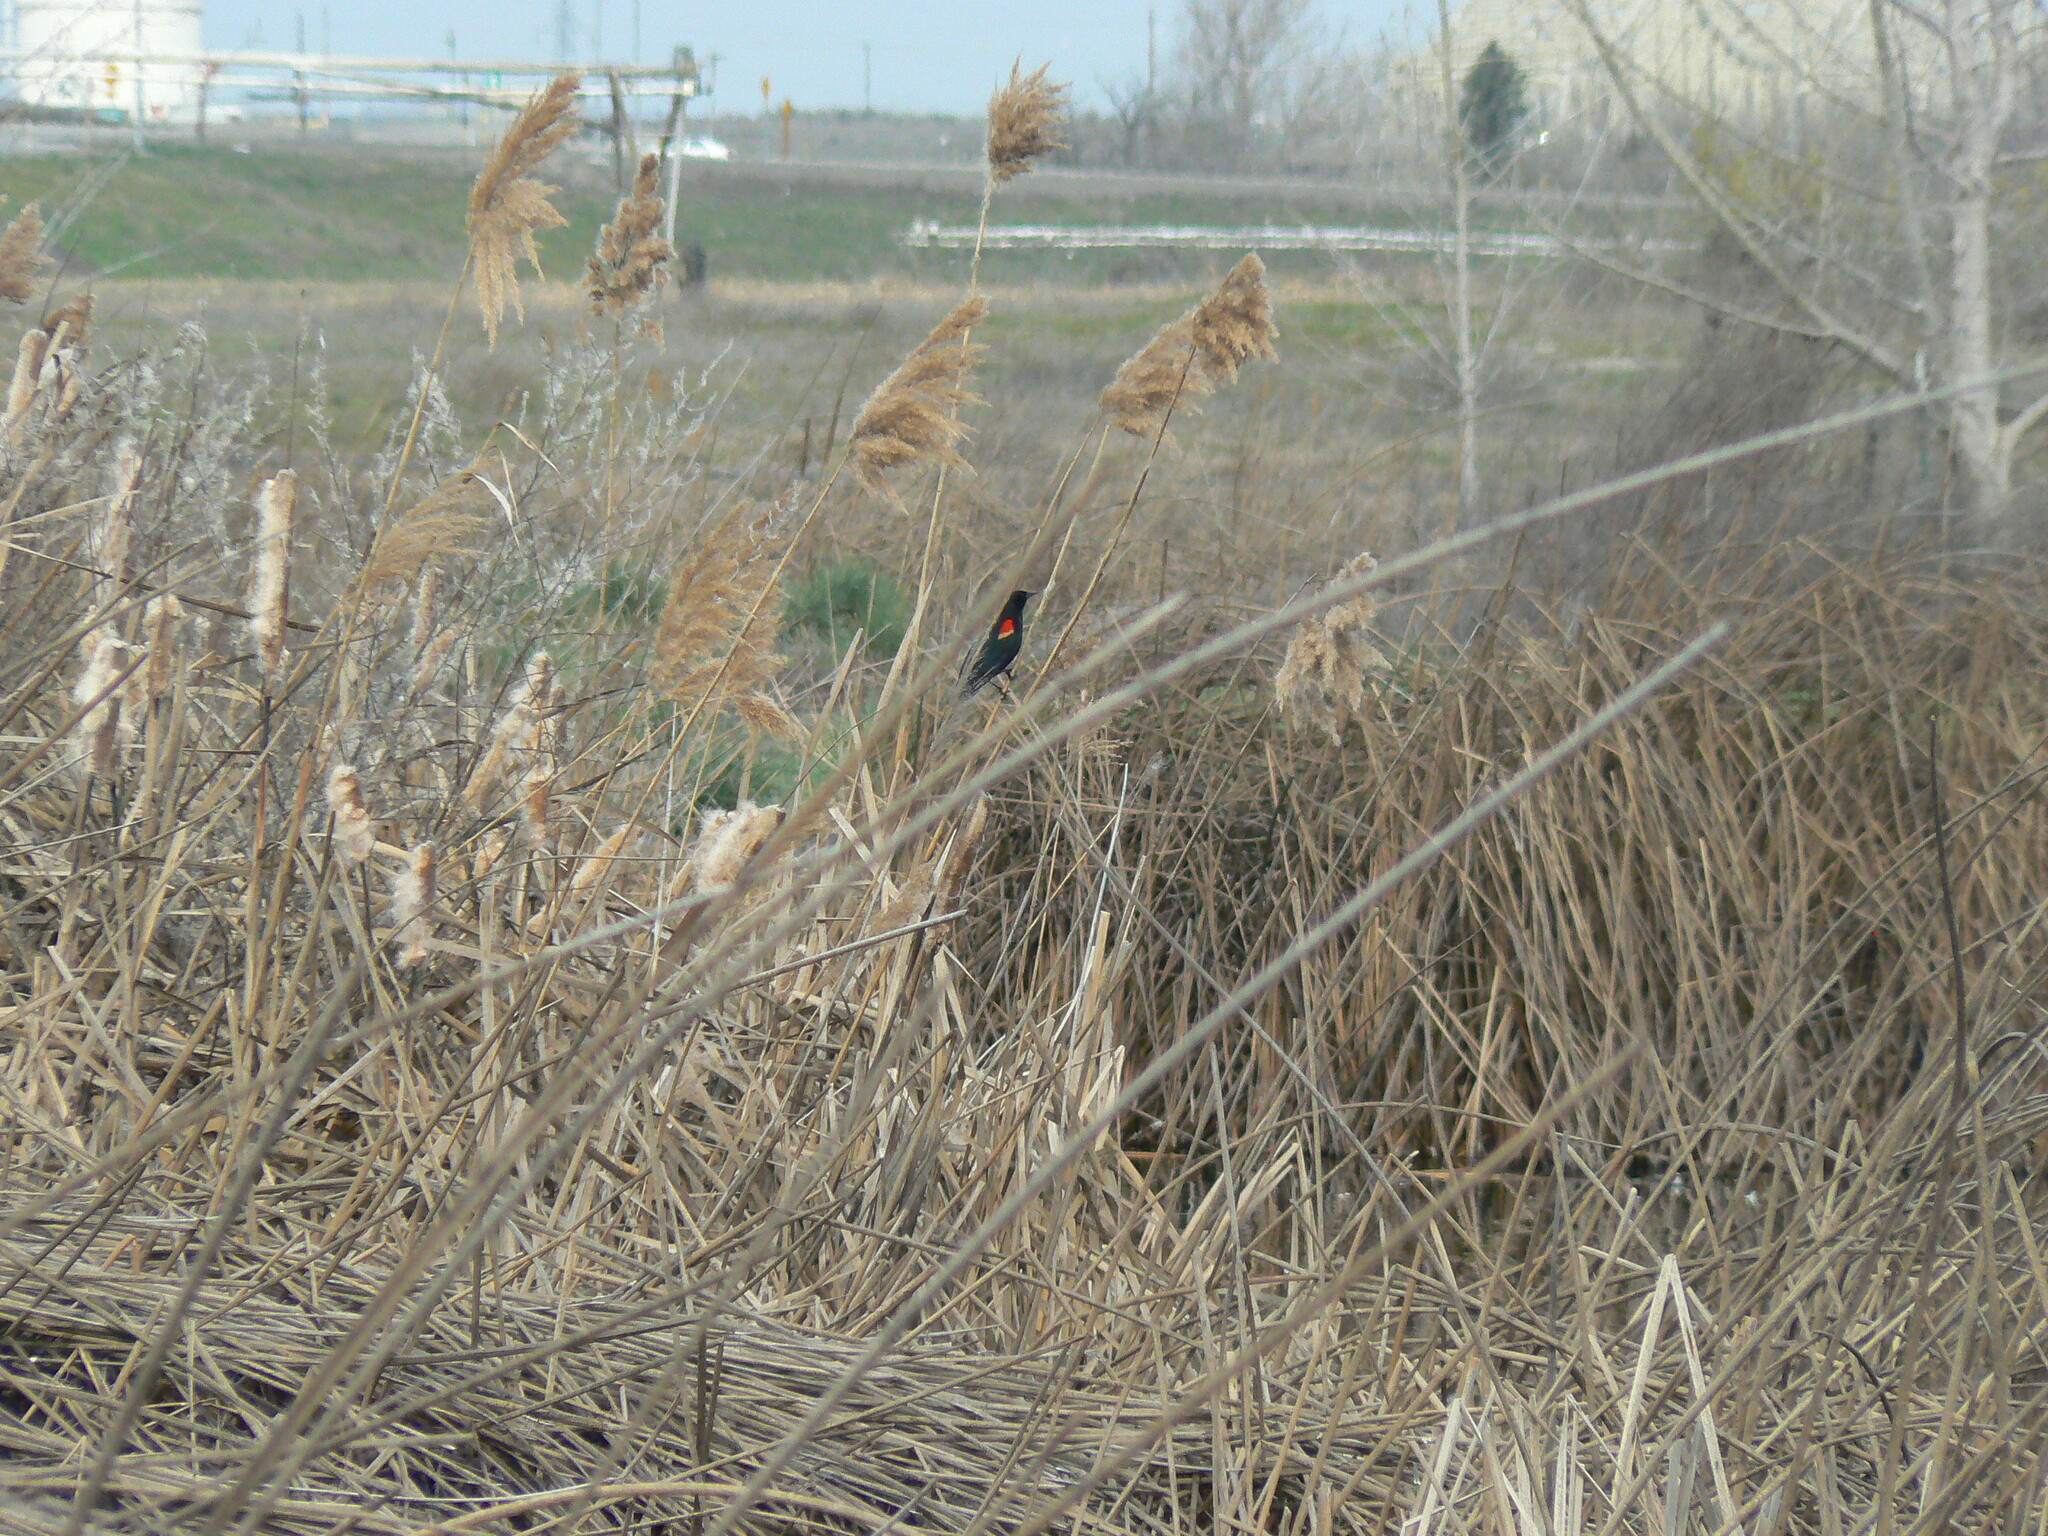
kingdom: Animalia
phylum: Chordata
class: Aves
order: Passeriformes
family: Icteridae
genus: Agelaius
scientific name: Agelaius phoeniceus
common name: Red-winged blackbird
